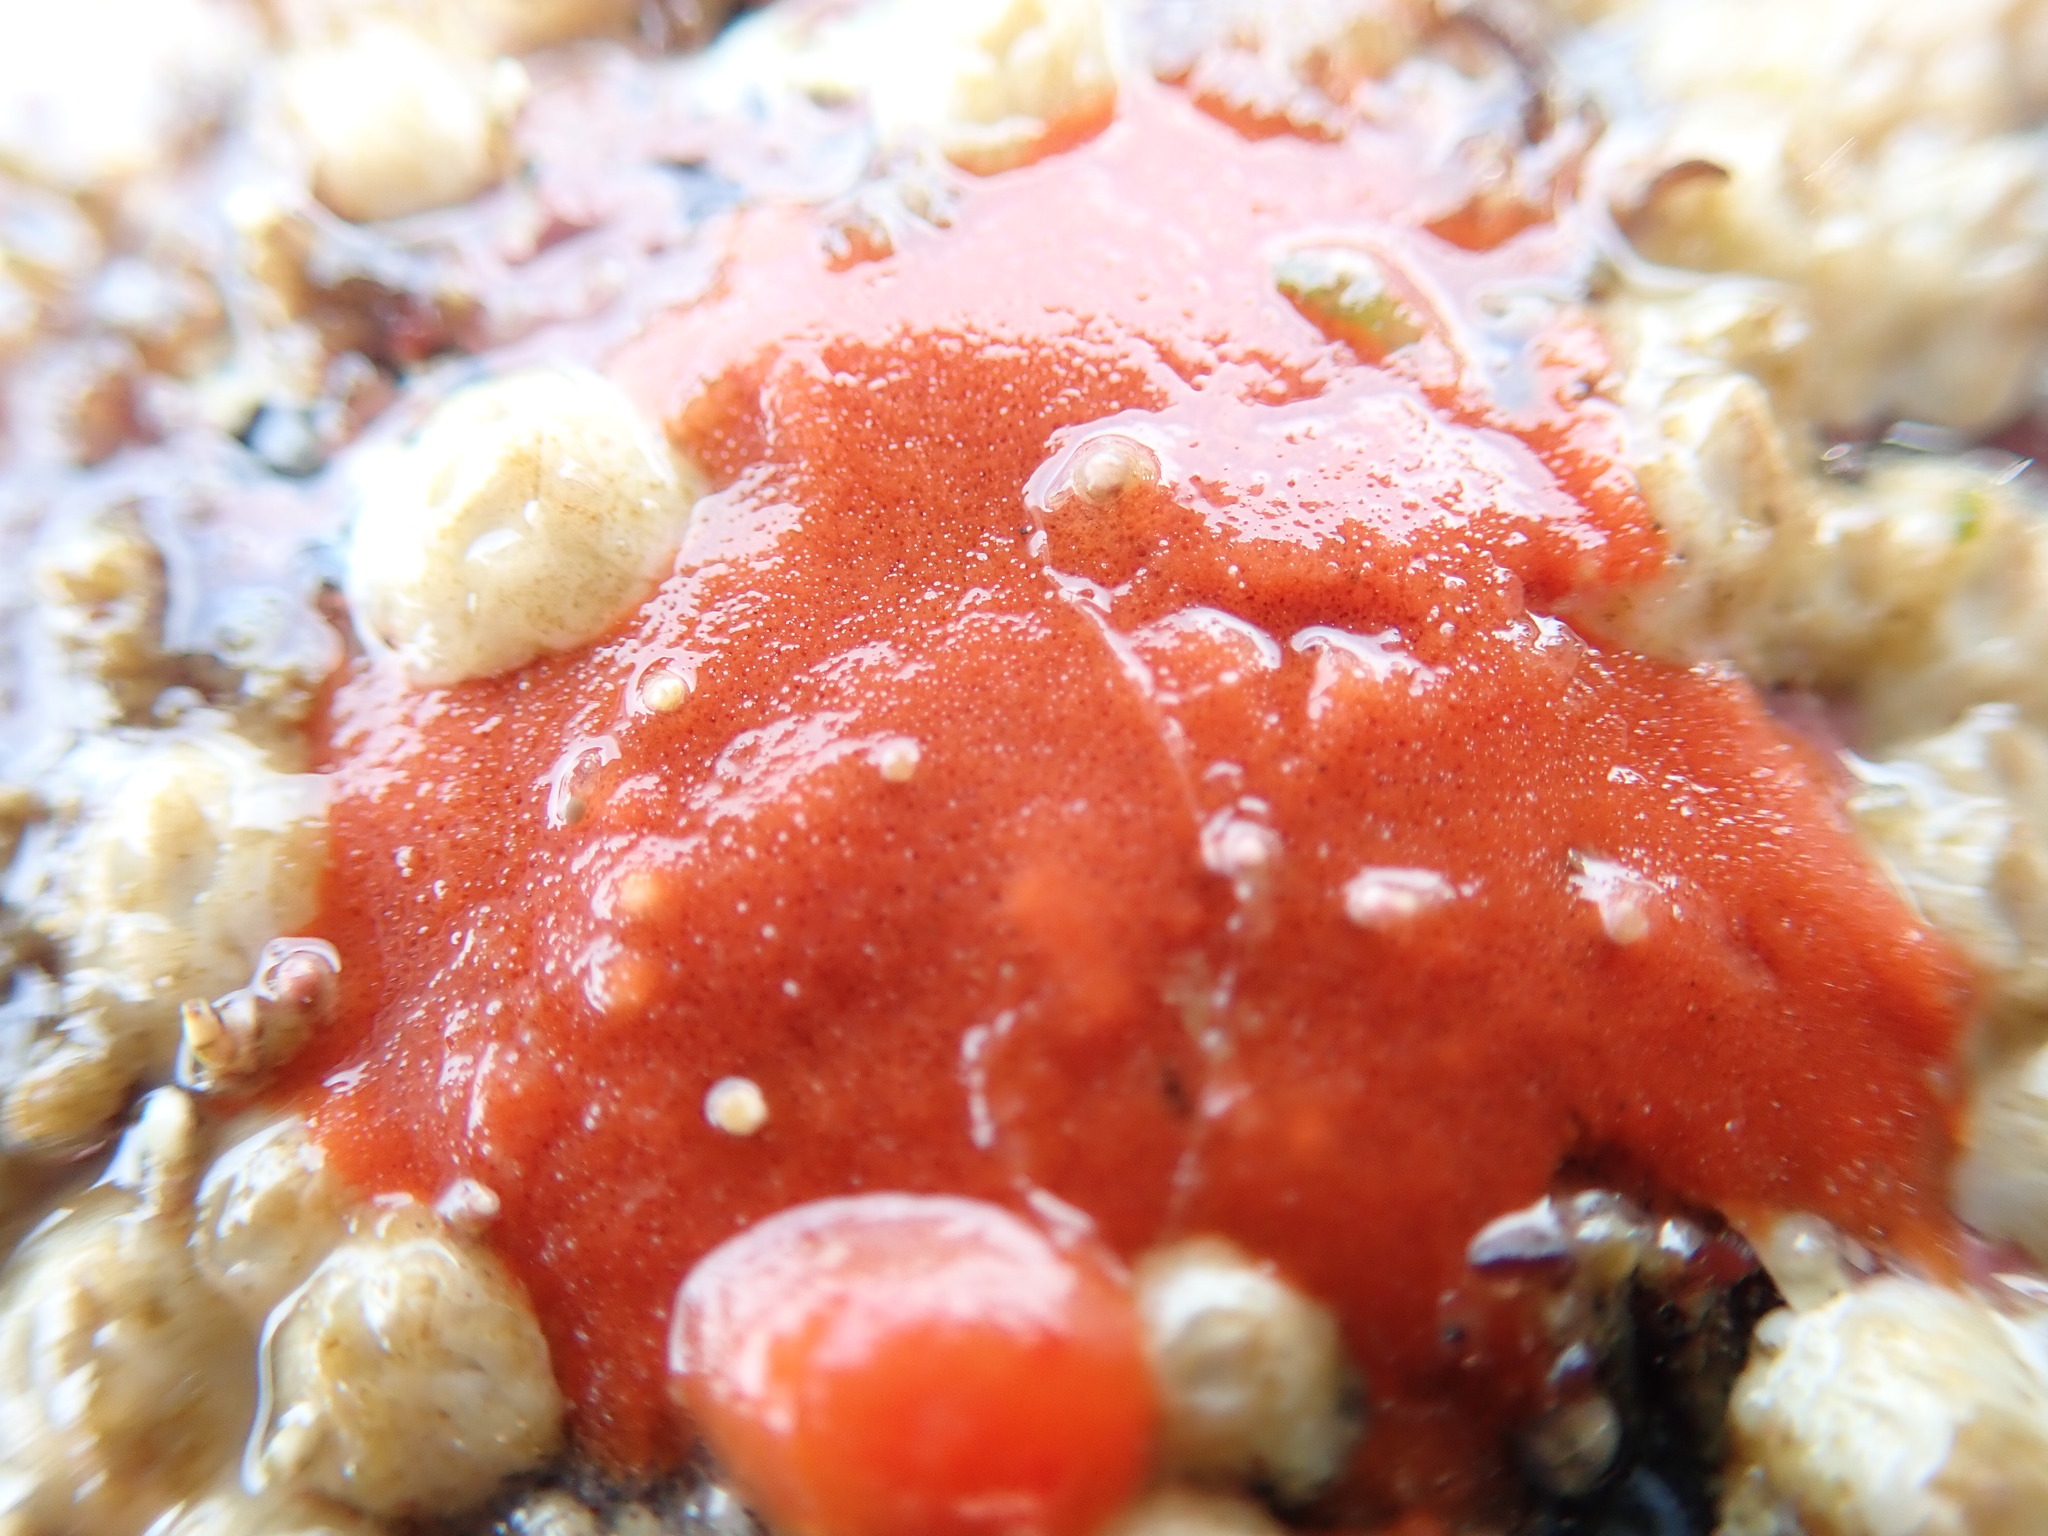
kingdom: Animalia
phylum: Mollusca
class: Gastropoda
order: Nudibranchia
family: Discodorididae
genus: Rostanga
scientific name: Rostanga pulchra
